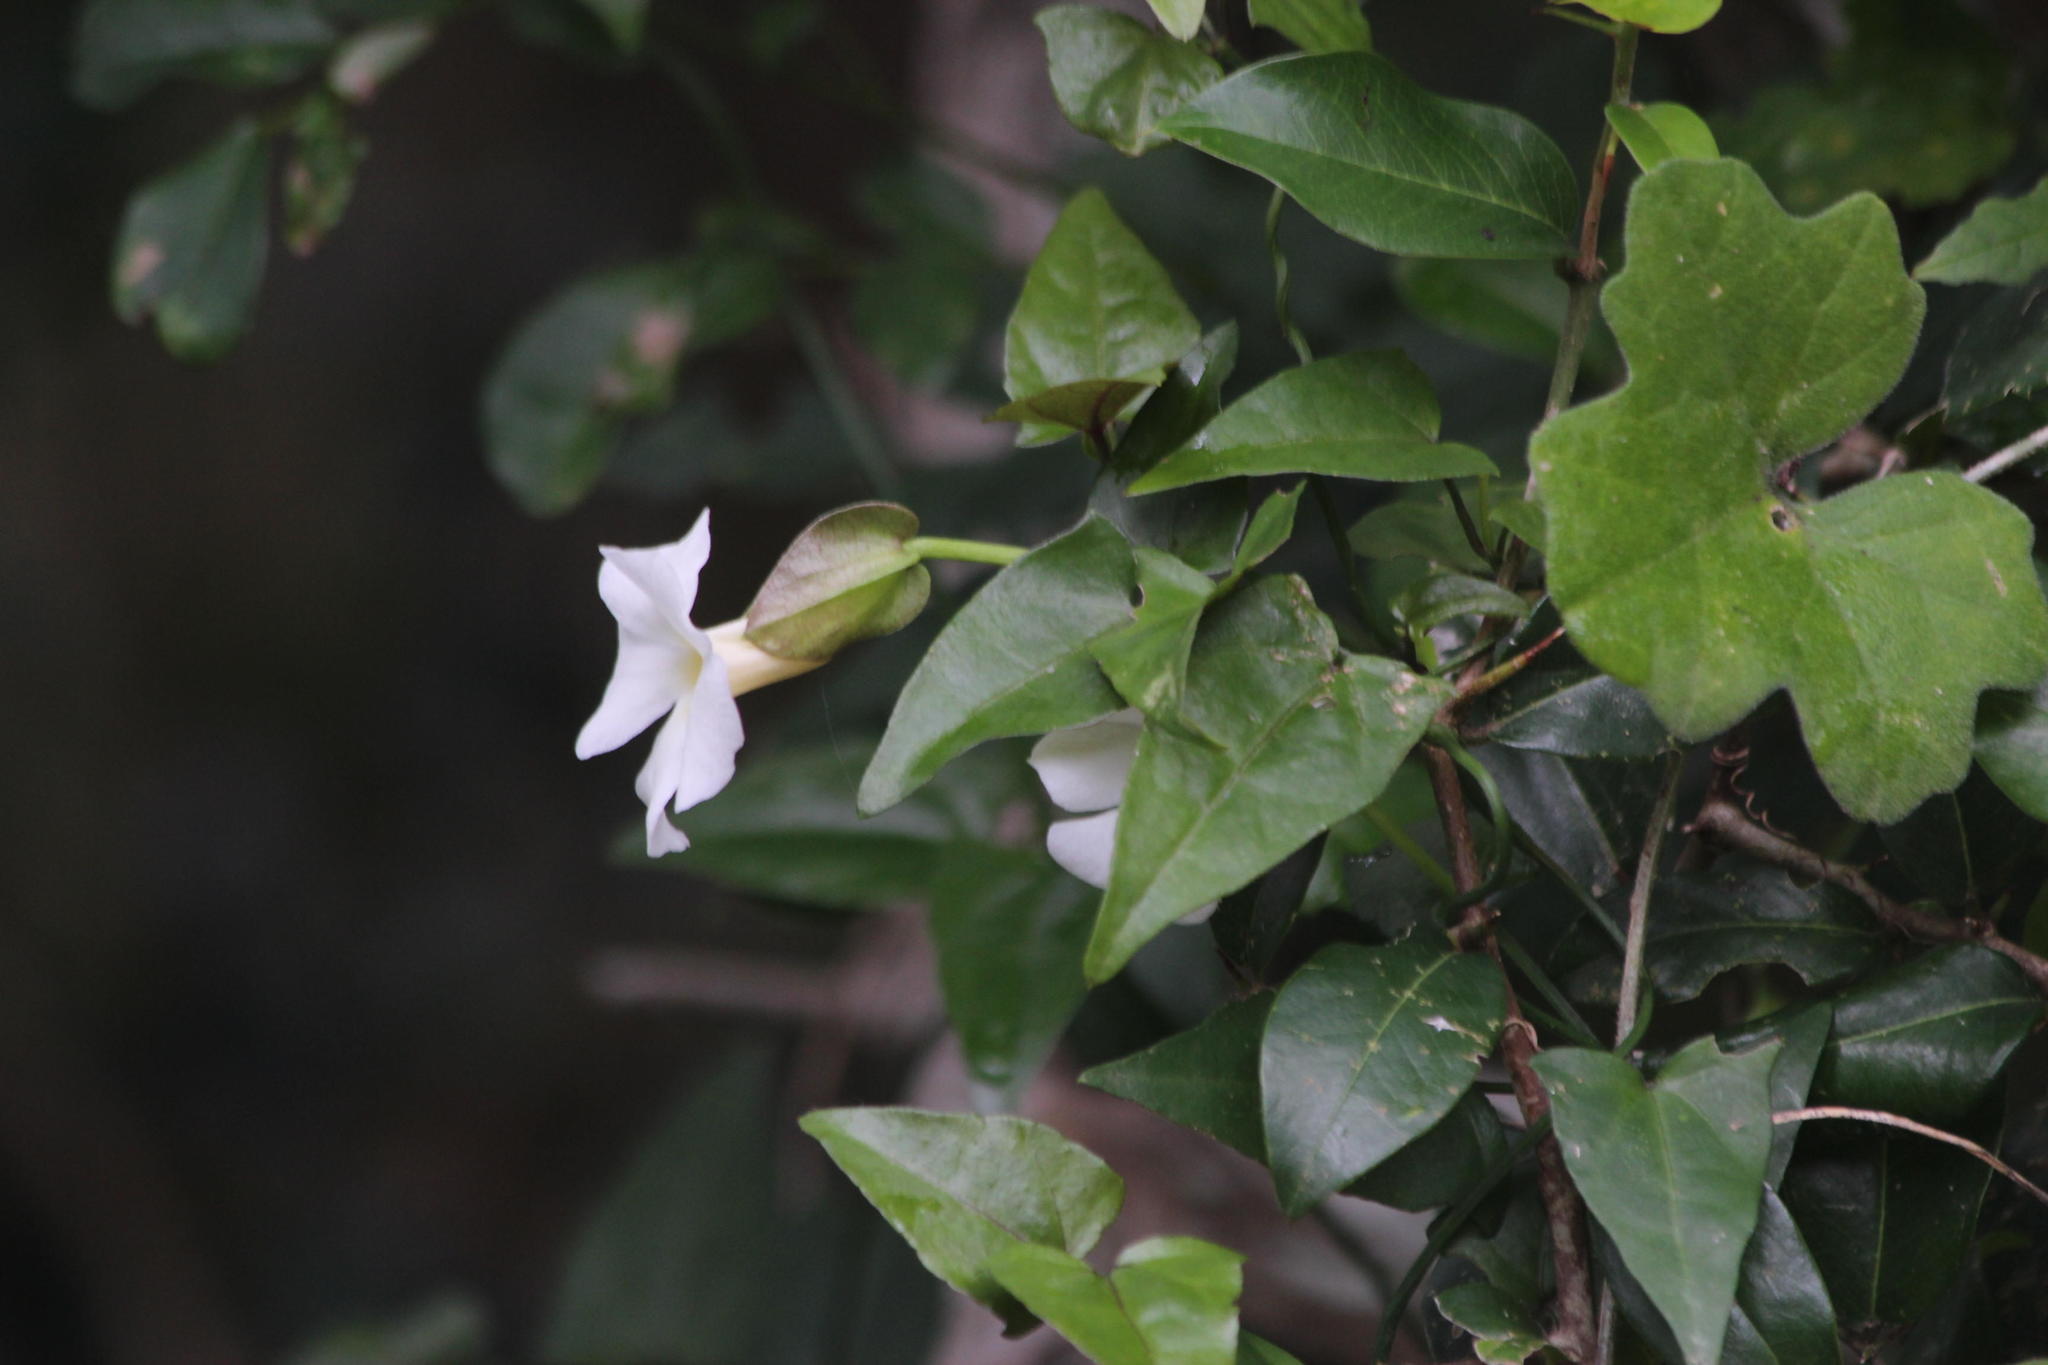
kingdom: Plantae
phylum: Tracheophyta
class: Magnoliopsida
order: Lamiales
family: Acanthaceae
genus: Thunbergia
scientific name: Thunbergia fragrans
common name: Whitelady
